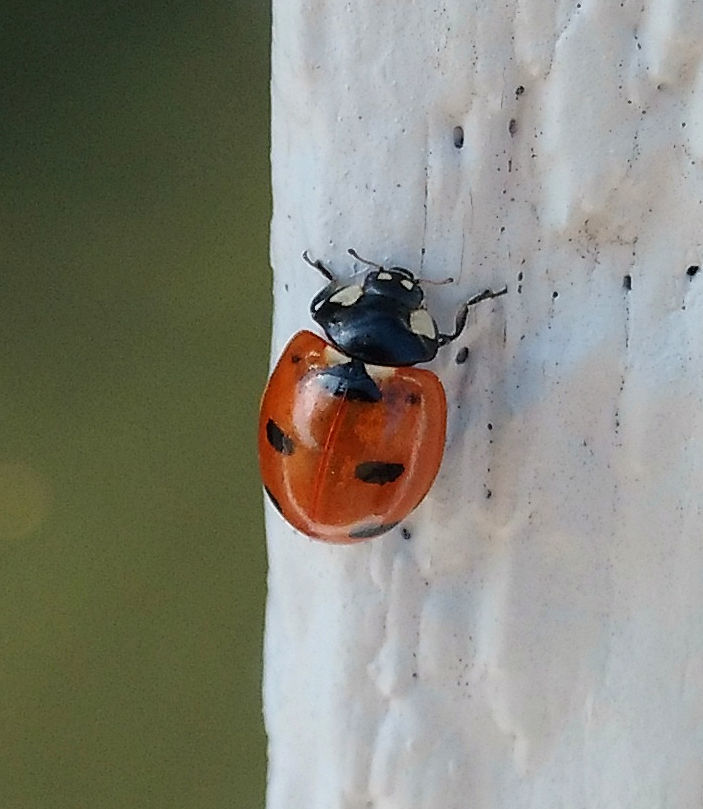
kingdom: Animalia
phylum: Arthropoda
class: Insecta
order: Coleoptera
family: Coccinellidae
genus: Coccinella
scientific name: Coccinella transversoguttata
